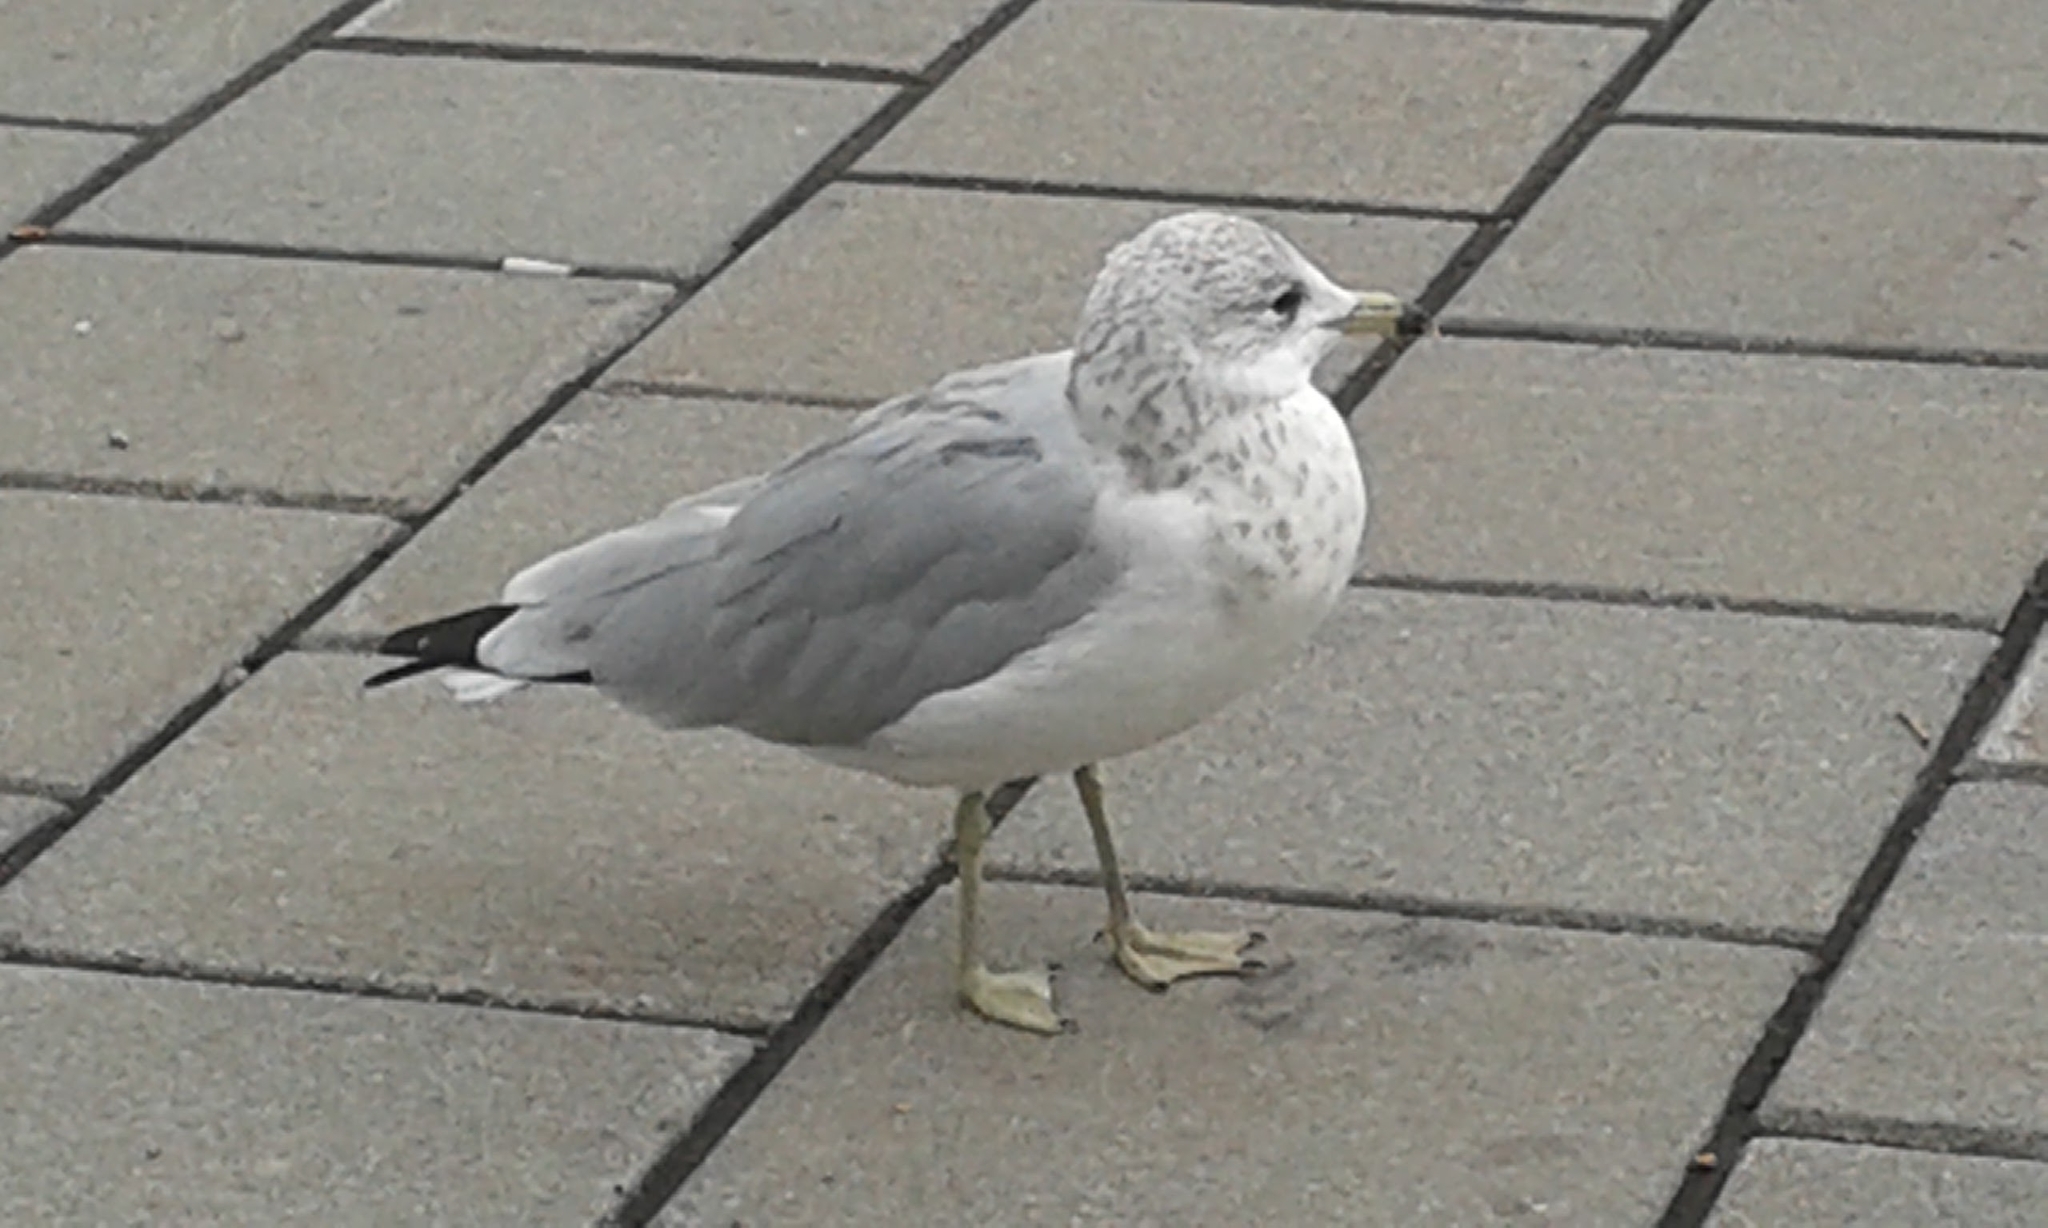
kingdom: Animalia
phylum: Chordata
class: Aves
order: Charadriiformes
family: Laridae
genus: Larus
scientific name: Larus delawarensis
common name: Ring-billed gull
